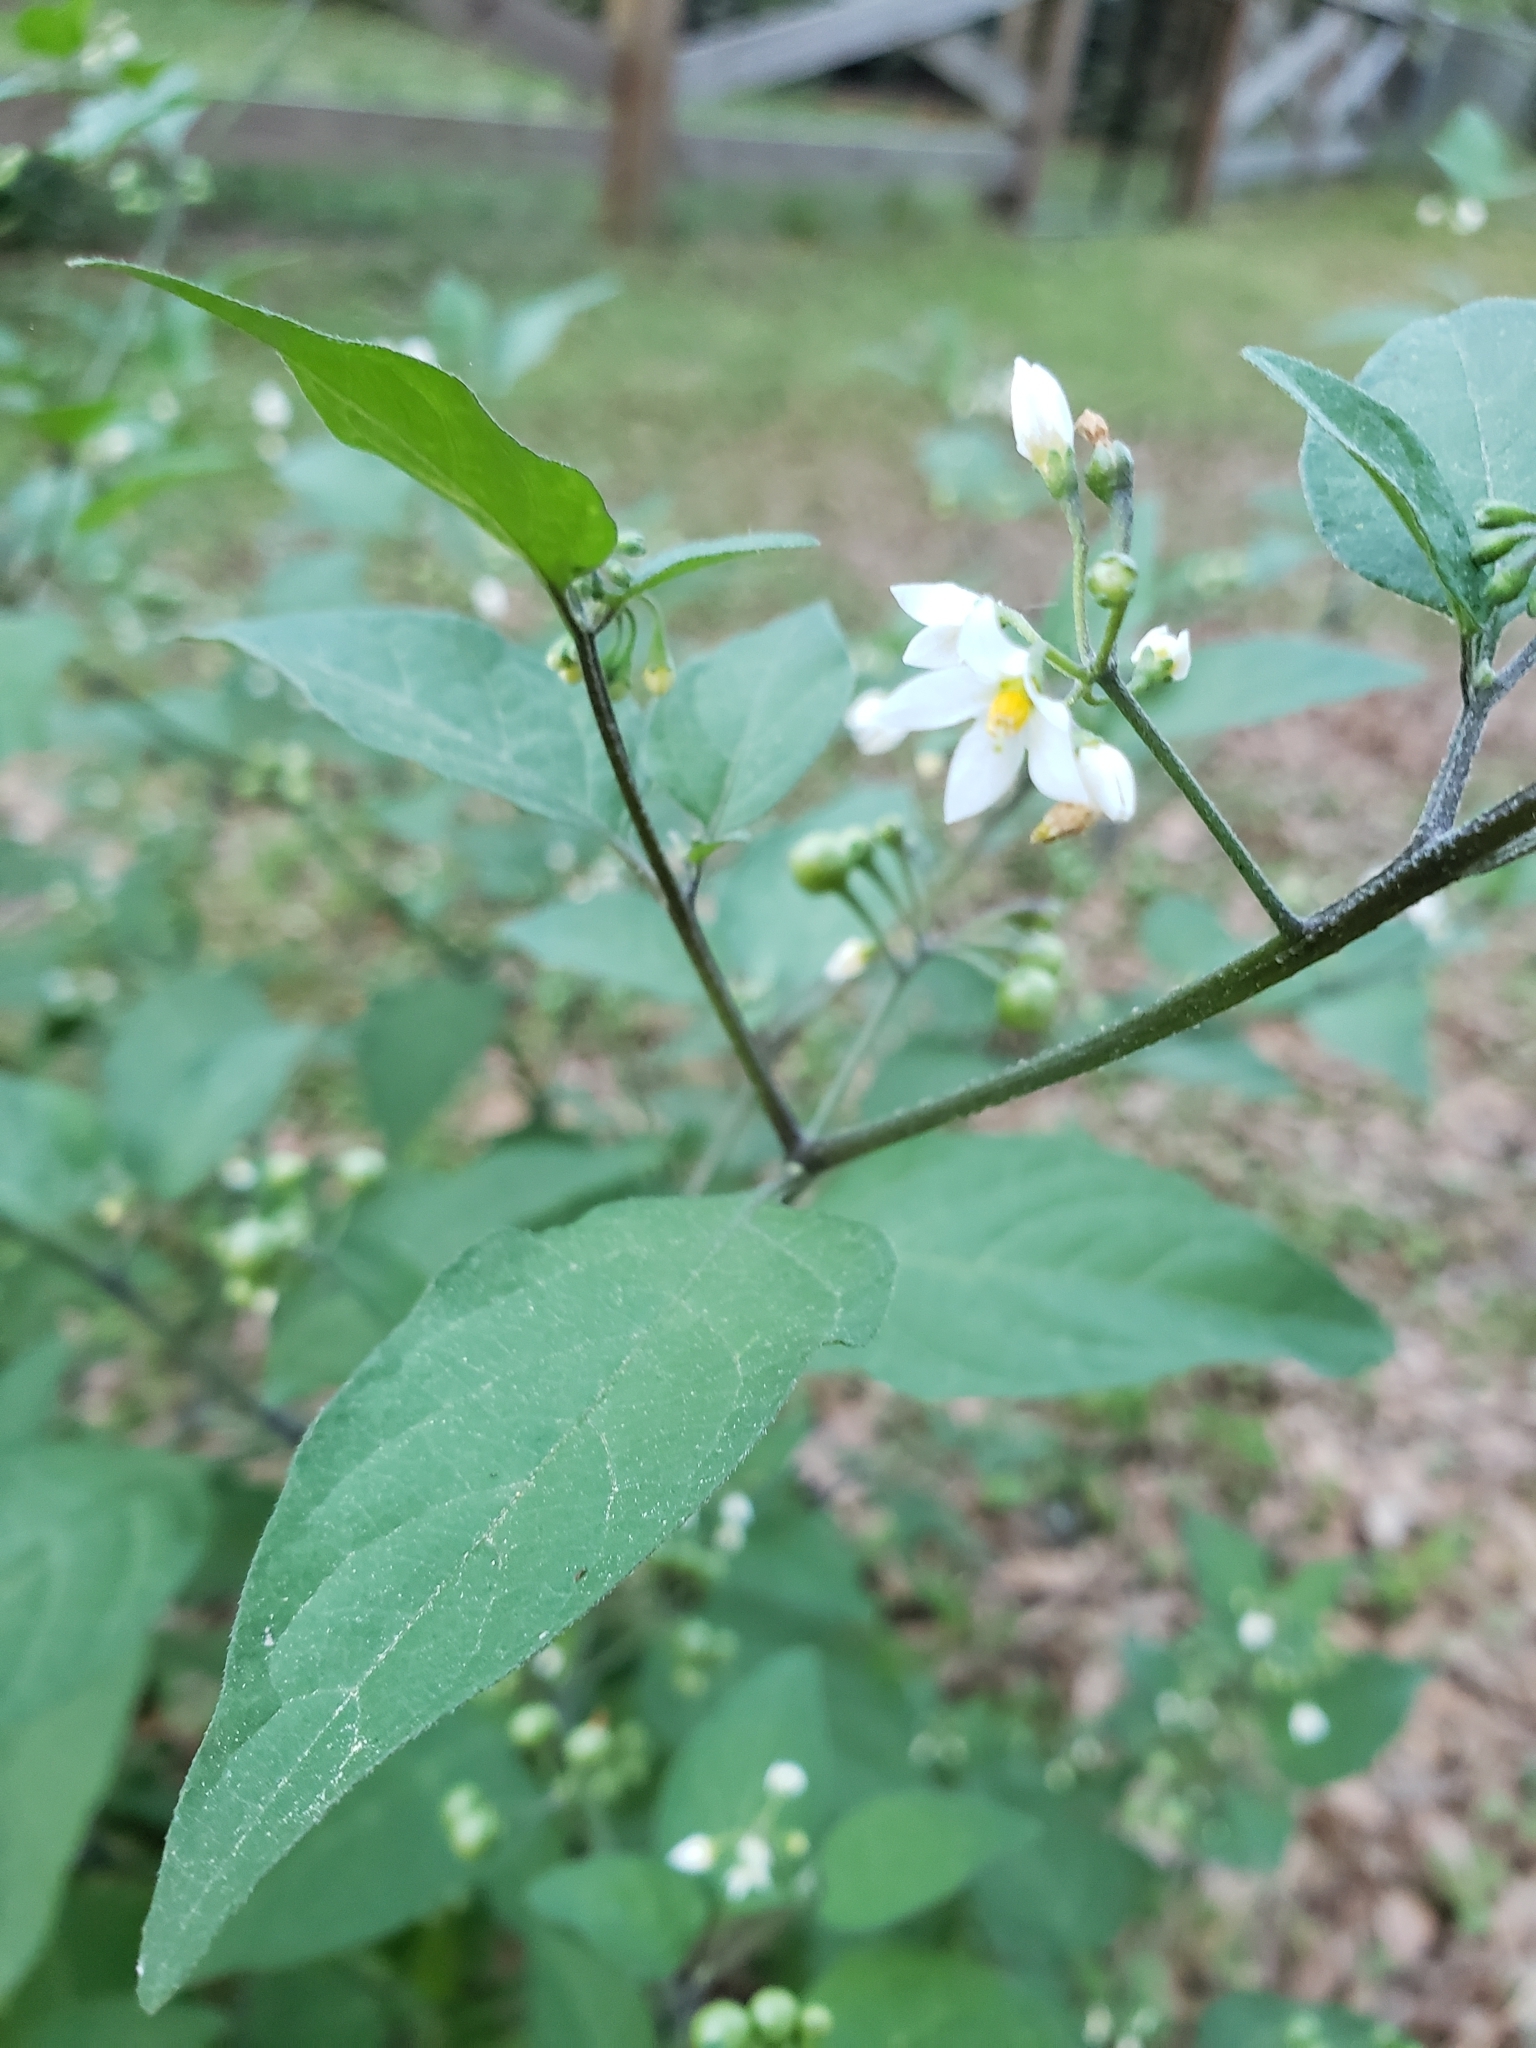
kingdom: Plantae
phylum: Tracheophyta
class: Magnoliopsida
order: Solanales
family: Solanaceae
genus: Solanum
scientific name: Solanum americanum
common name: American black nightshade
